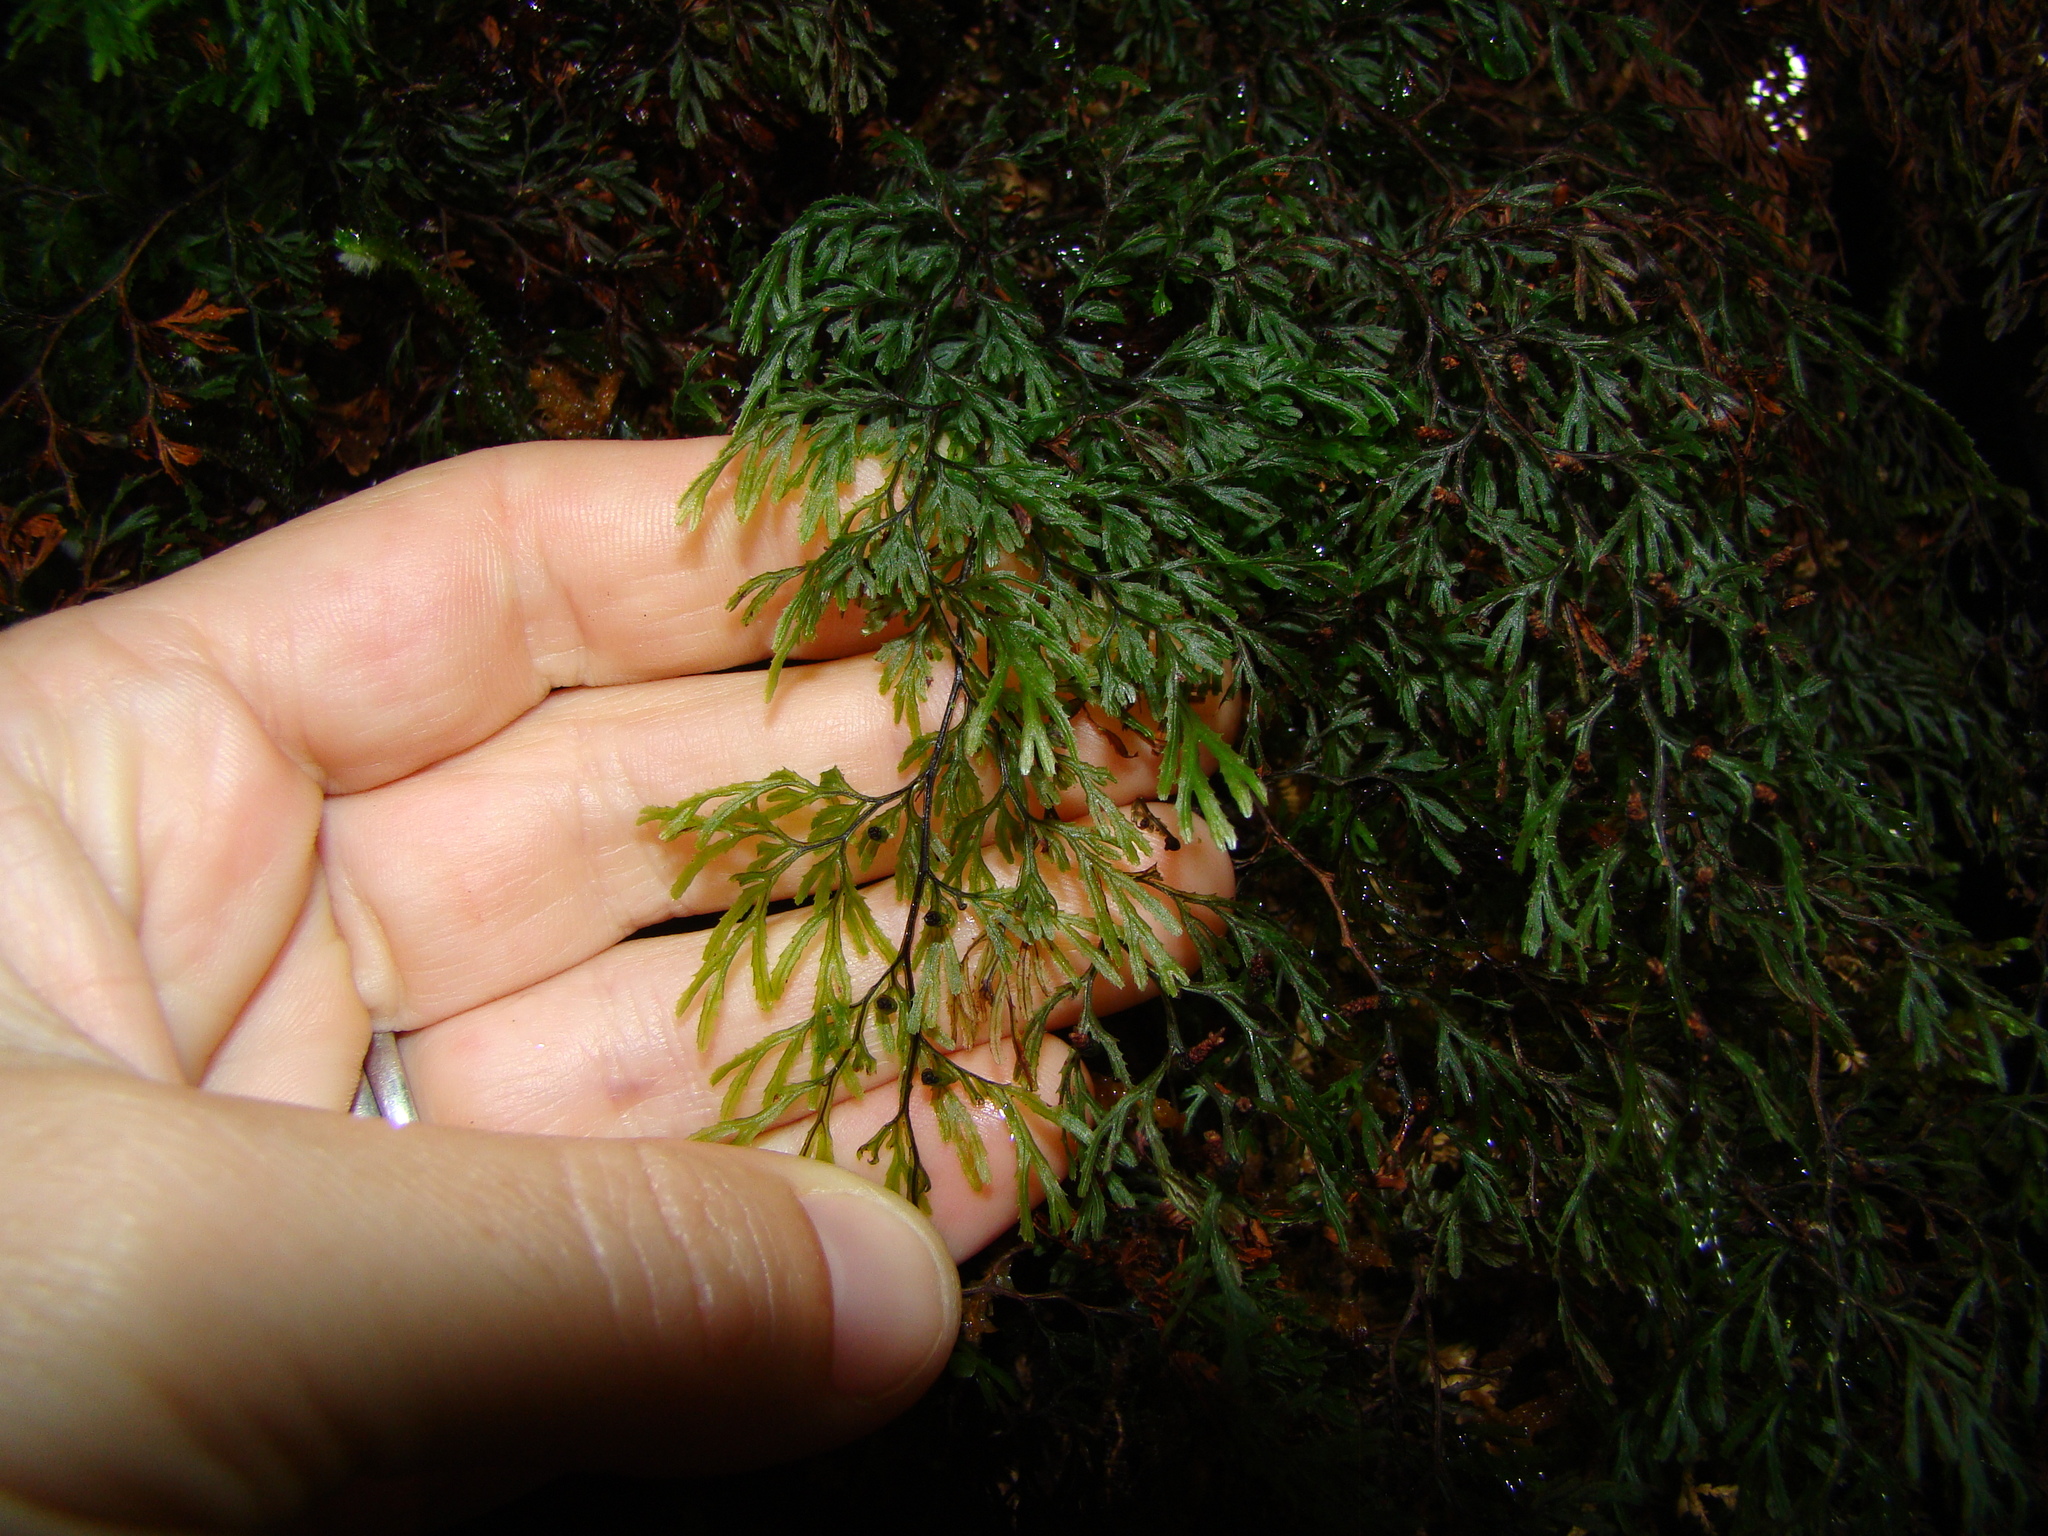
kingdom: Plantae
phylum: Tracheophyta
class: Polypodiopsida
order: Hymenophyllales
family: Hymenophyllaceae
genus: Hymenophyllum
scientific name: Hymenophyllum multifidum
